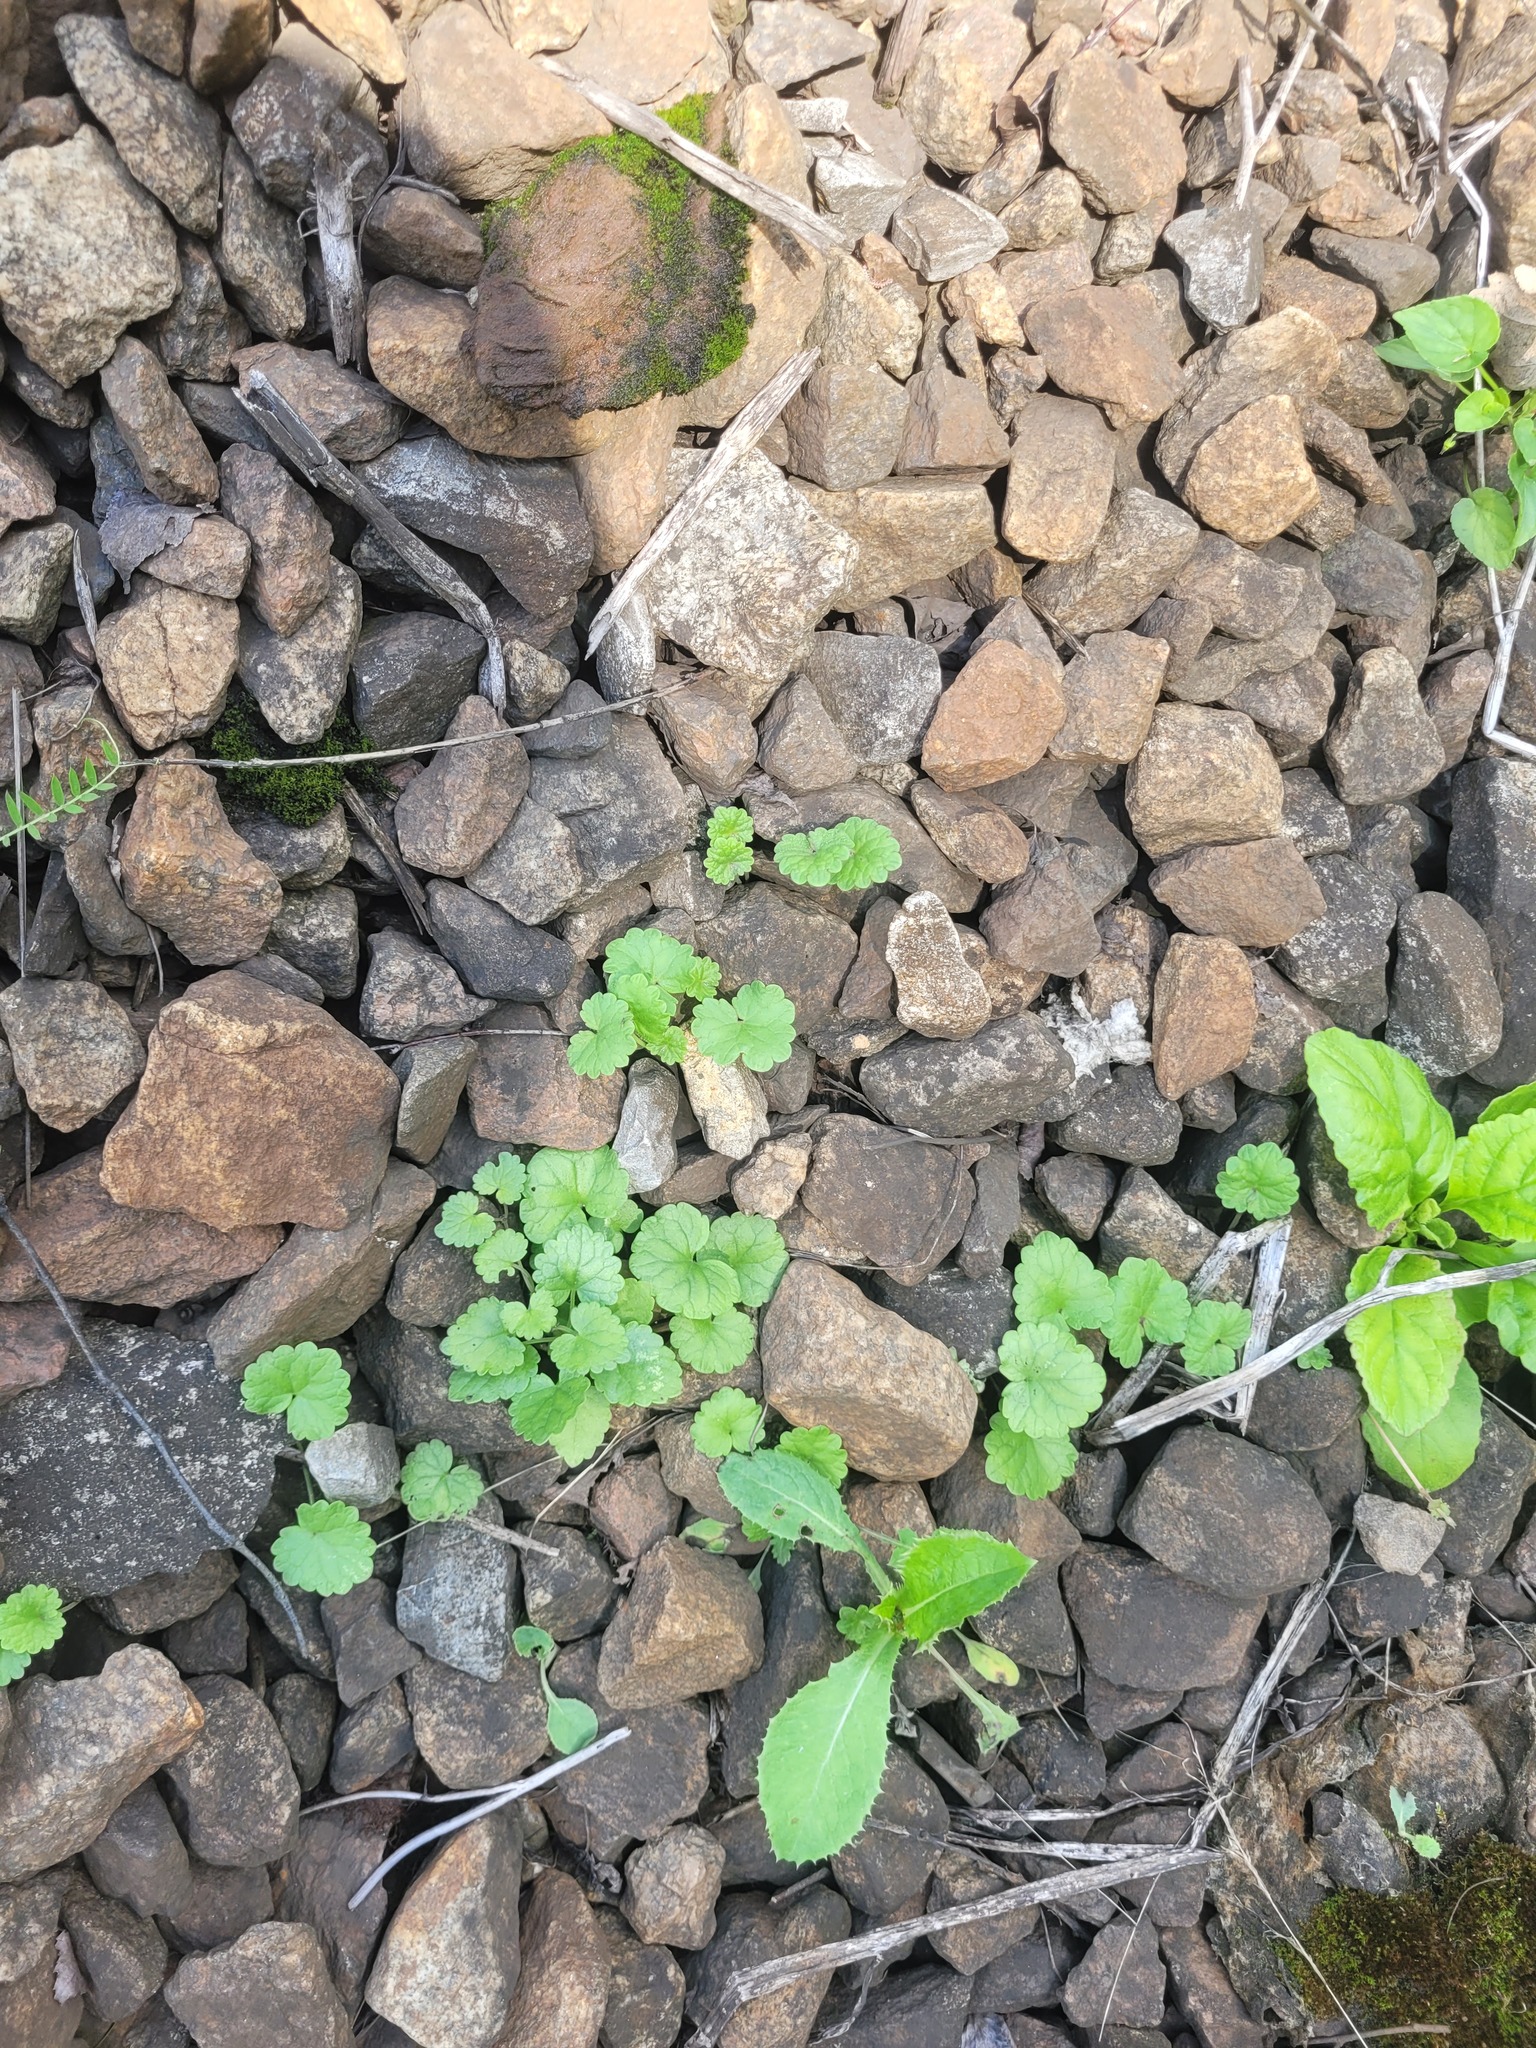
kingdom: Plantae
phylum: Tracheophyta
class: Magnoliopsida
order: Lamiales
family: Lamiaceae
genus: Glechoma
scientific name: Glechoma hederacea
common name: Ground ivy
